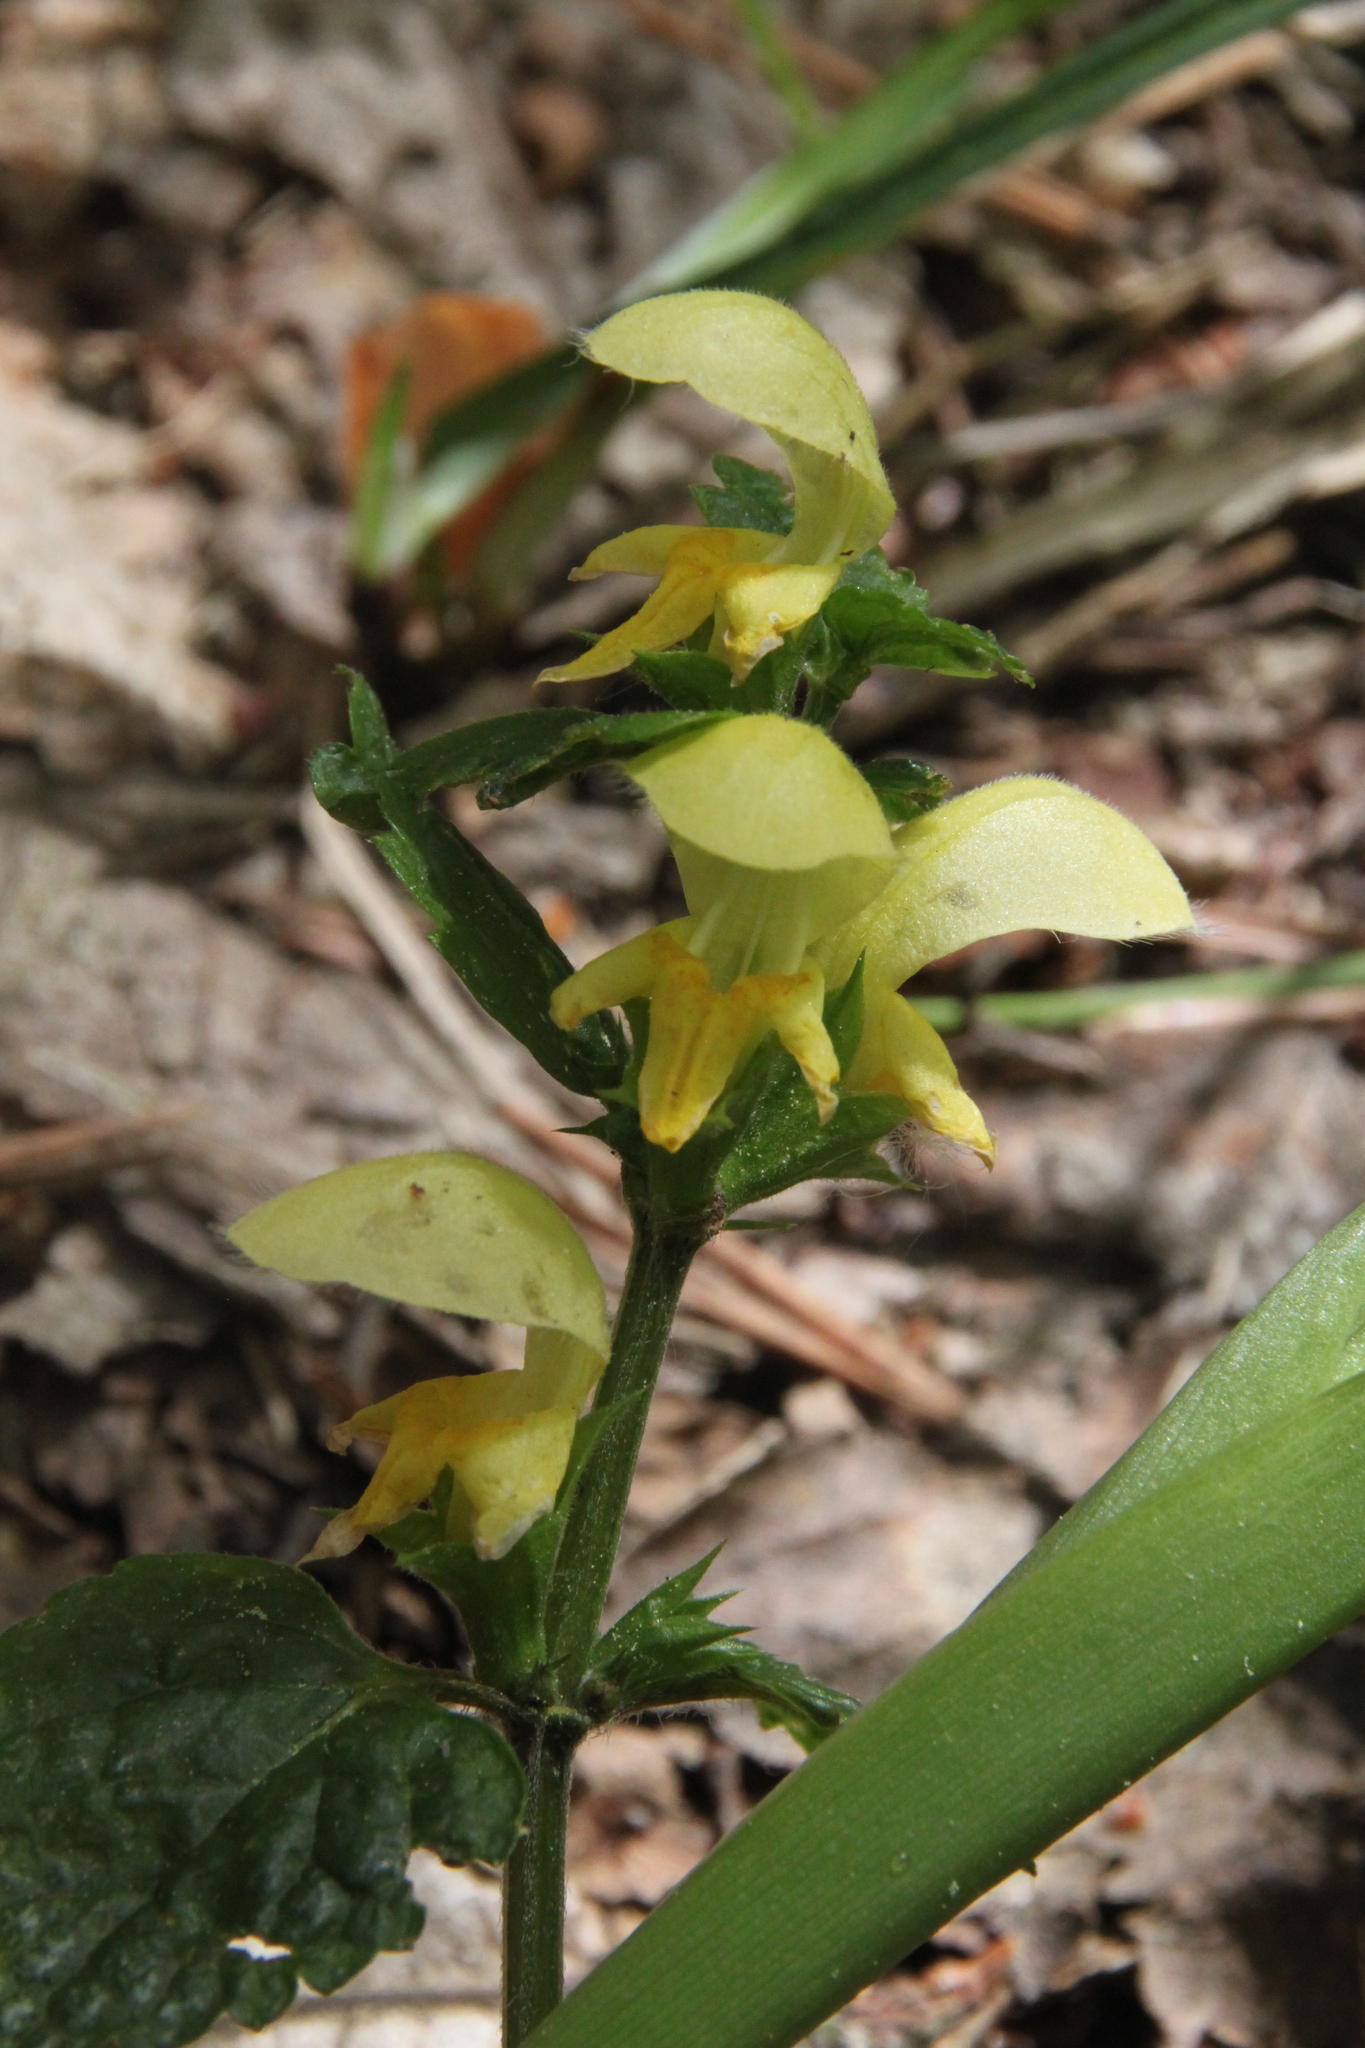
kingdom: Plantae
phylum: Tracheophyta
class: Magnoliopsida
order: Lamiales
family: Lamiaceae
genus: Lamium
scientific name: Lamium galeobdolon
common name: Yellow archangel
